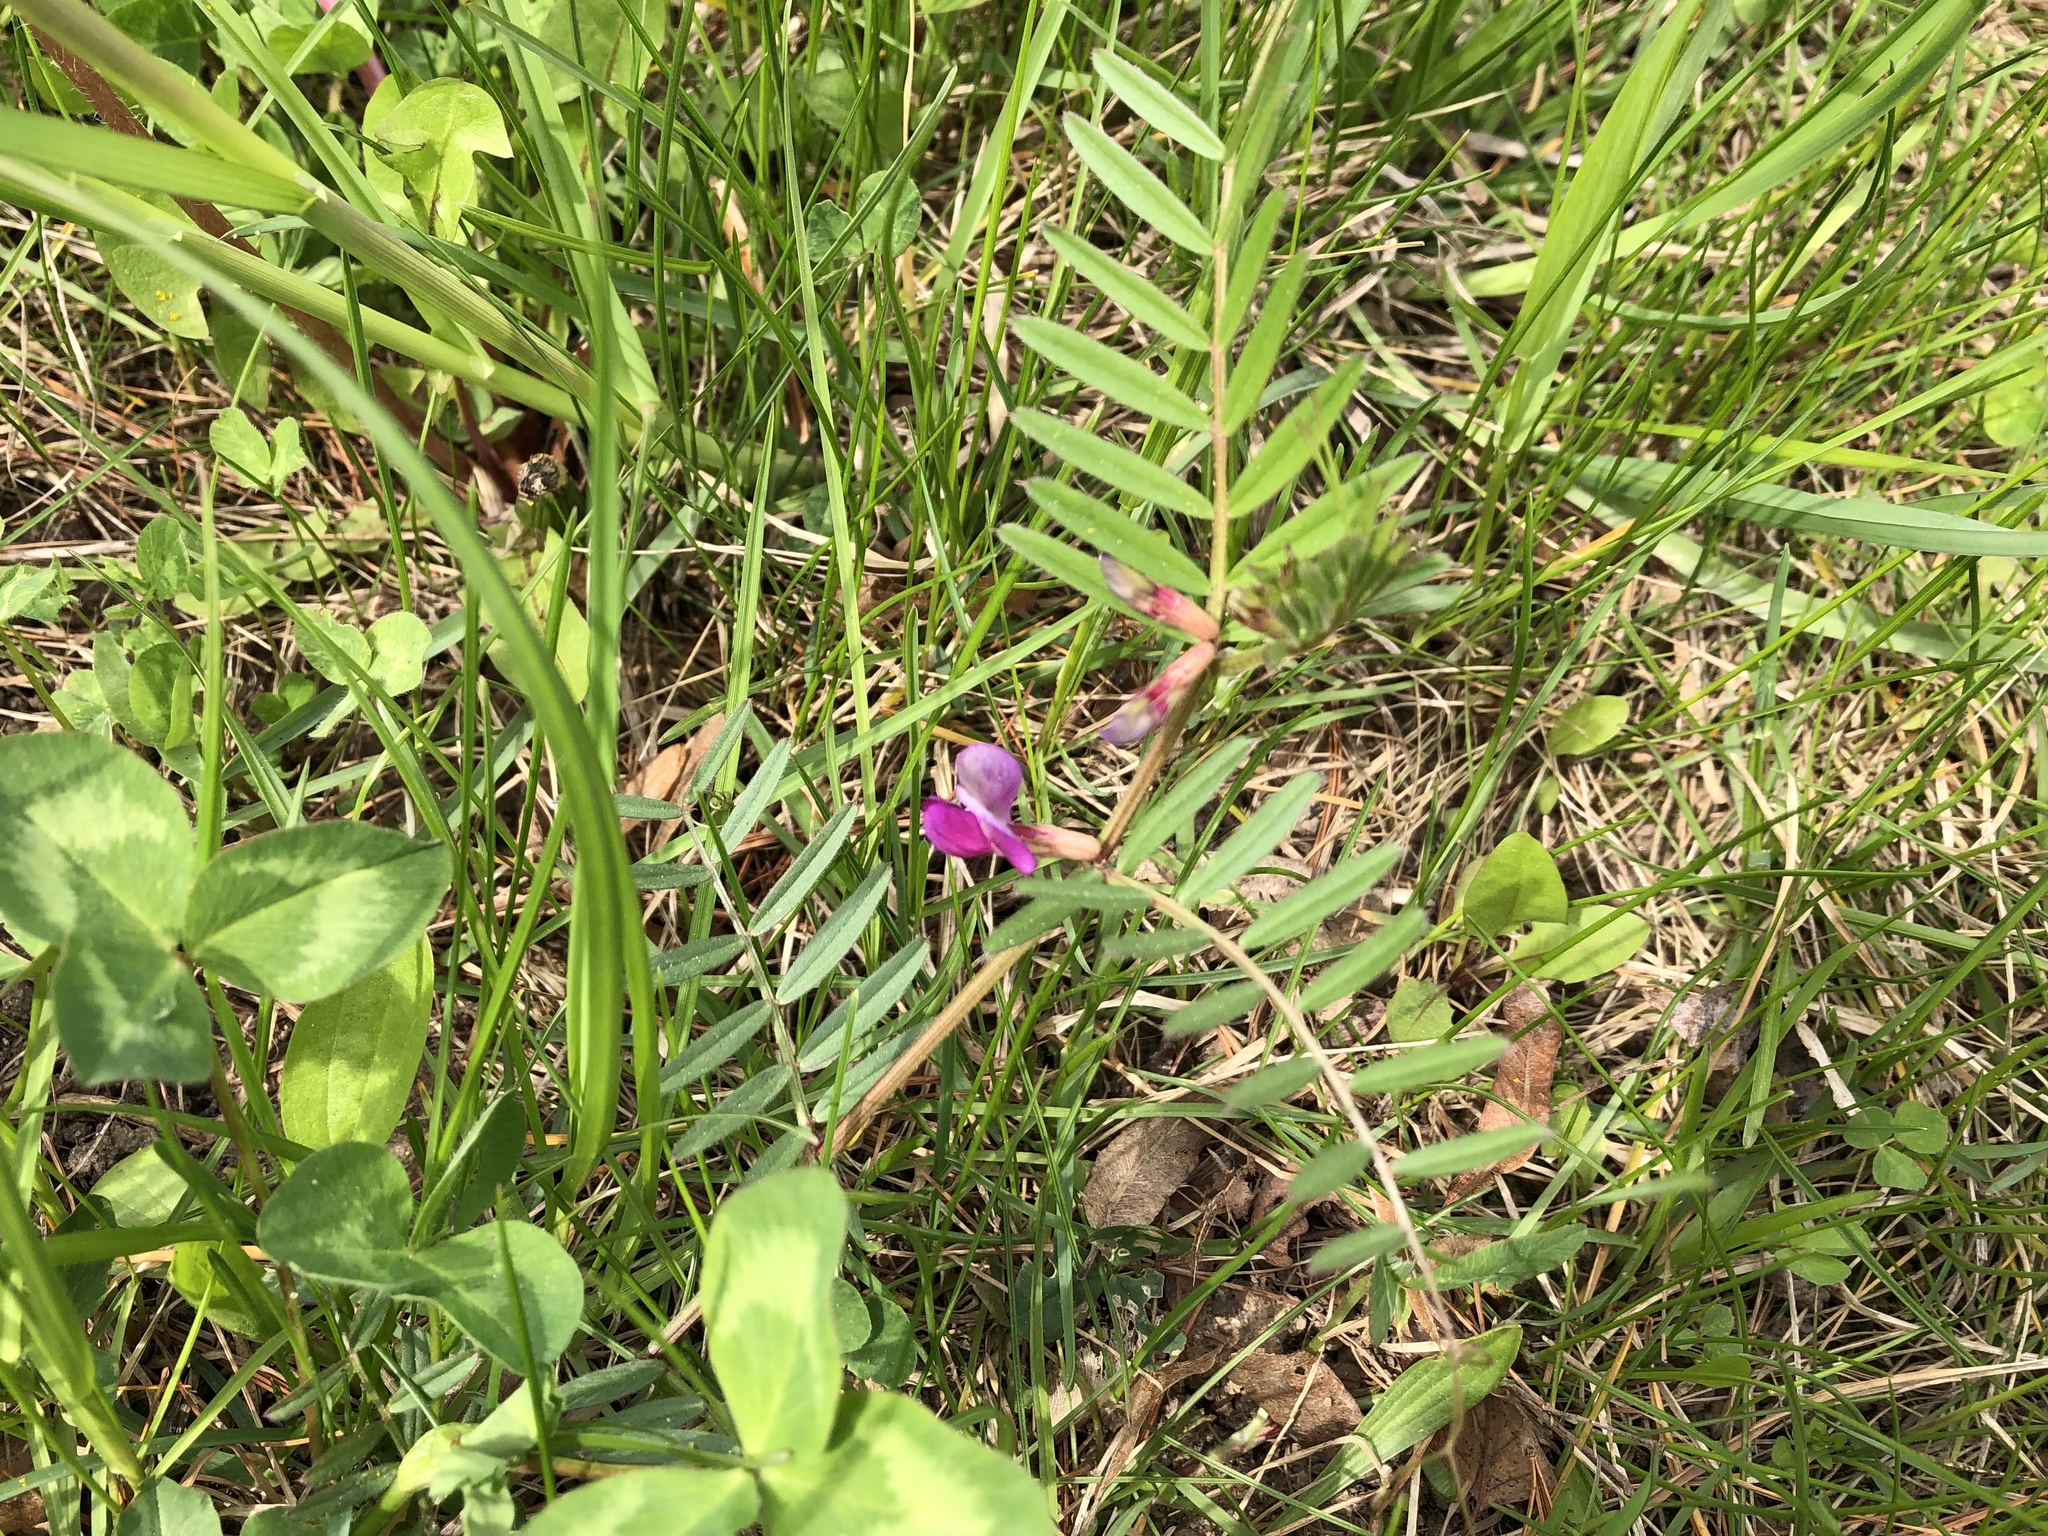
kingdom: Plantae
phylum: Tracheophyta
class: Magnoliopsida
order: Fabales
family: Fabaceae
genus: Vicia
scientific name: Vicia sativa
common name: Garden vetch
